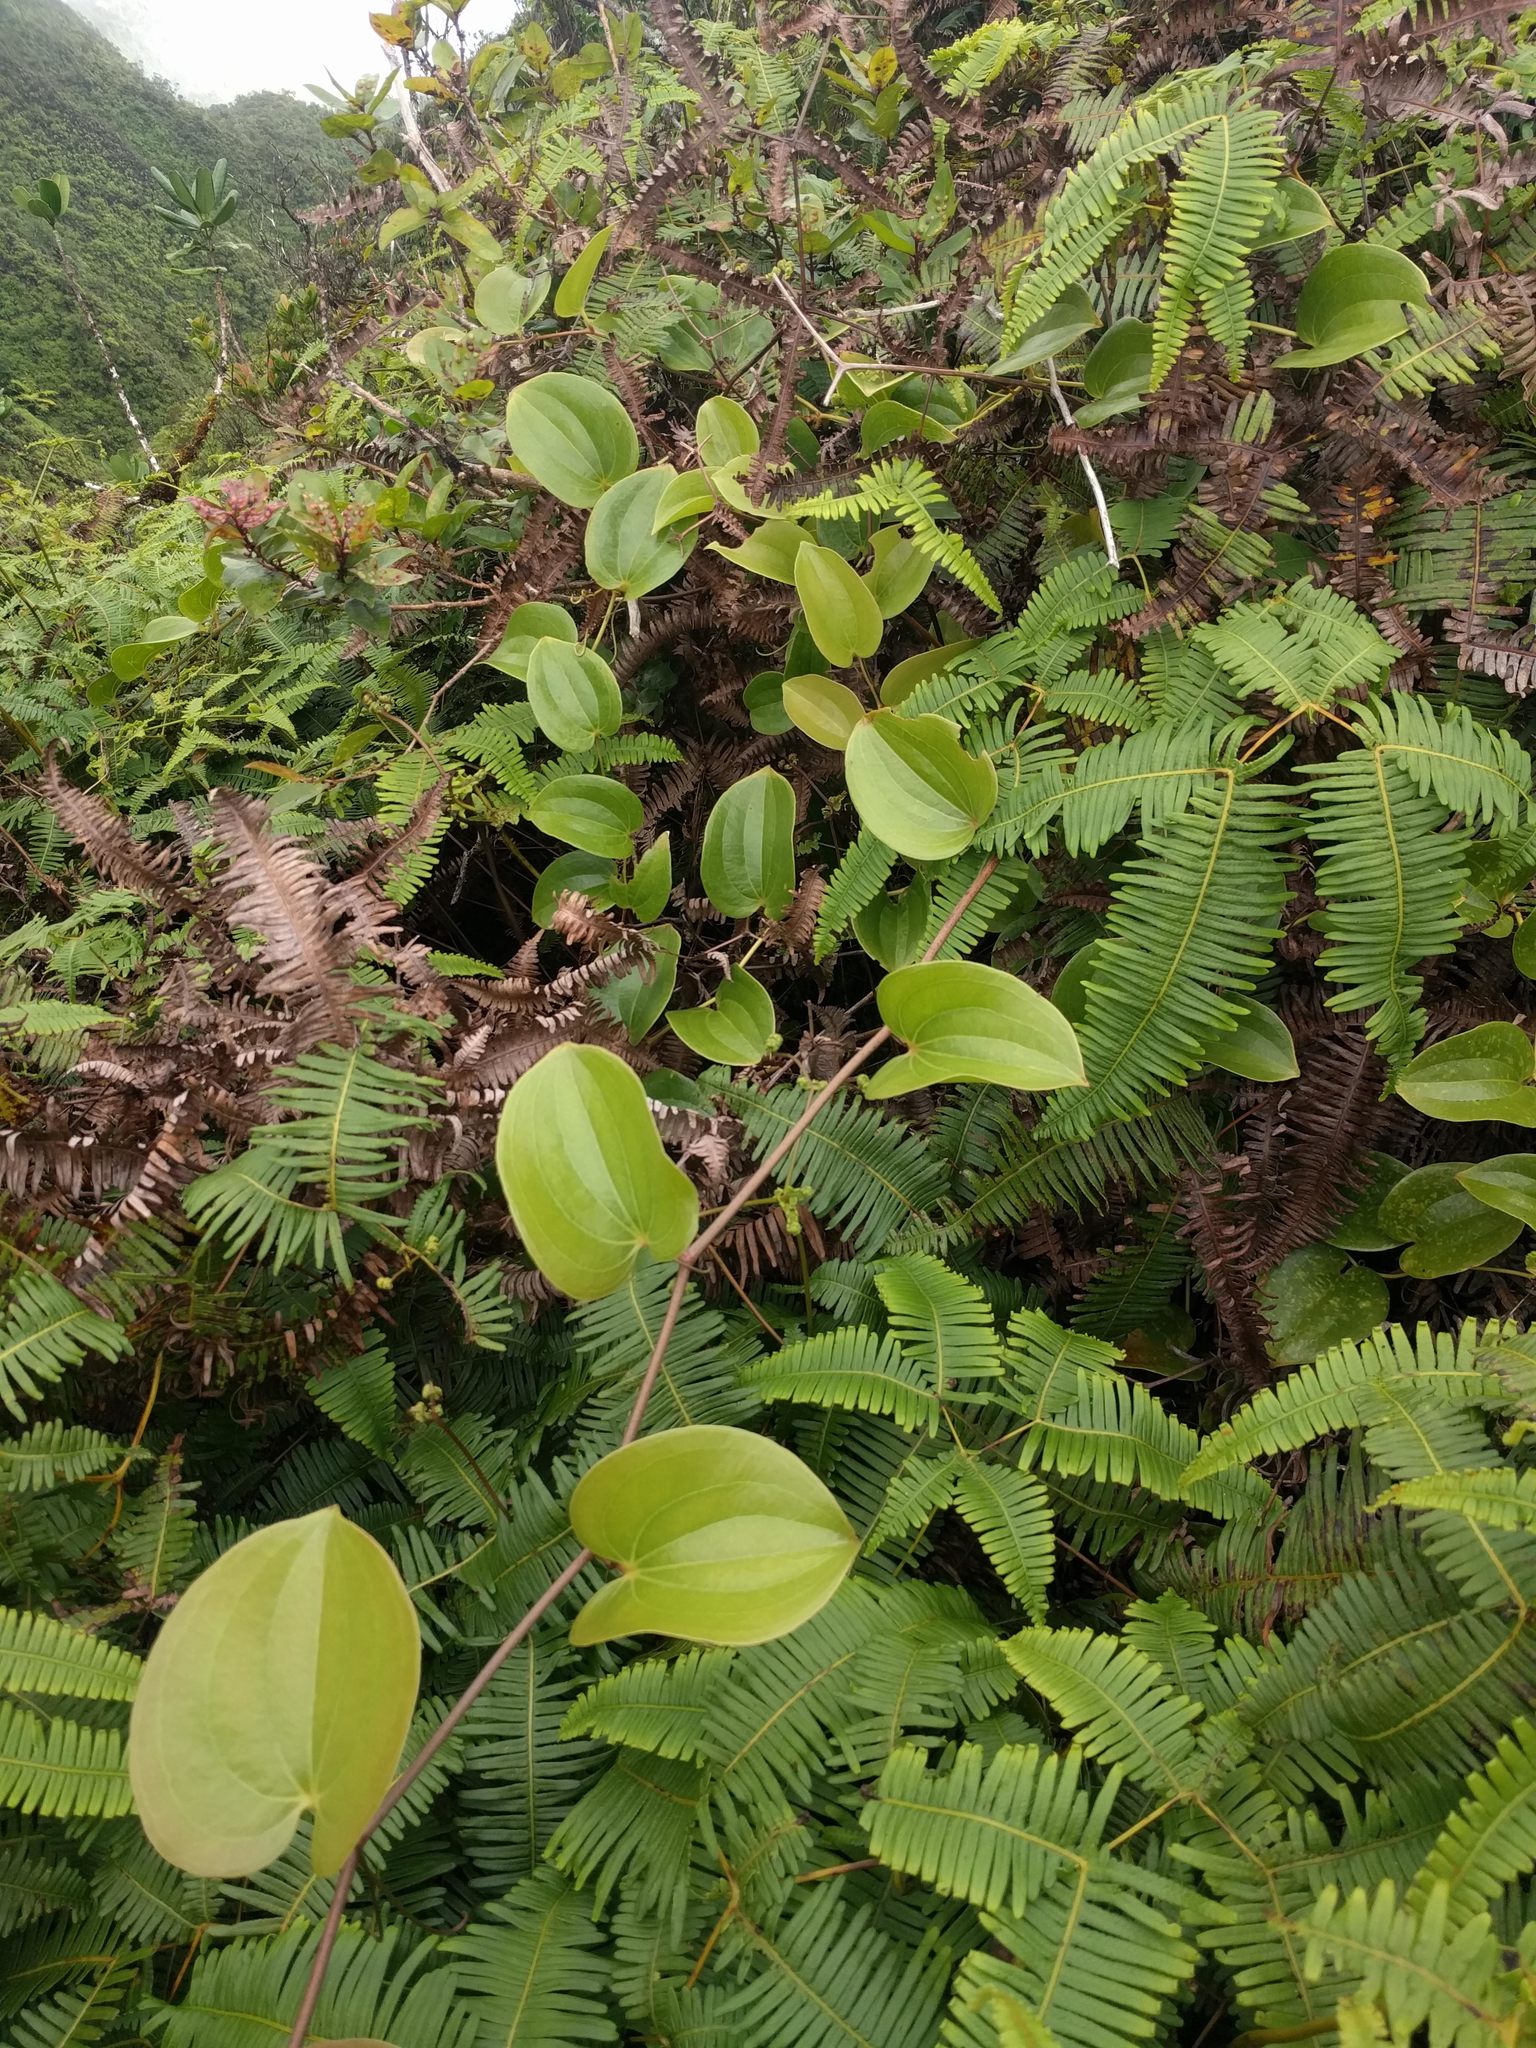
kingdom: Plantae
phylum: Tracheophyta
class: Liliopsida
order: Liliales
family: Smilacaceae
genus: Smilax
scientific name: Smilax melastomifolia
